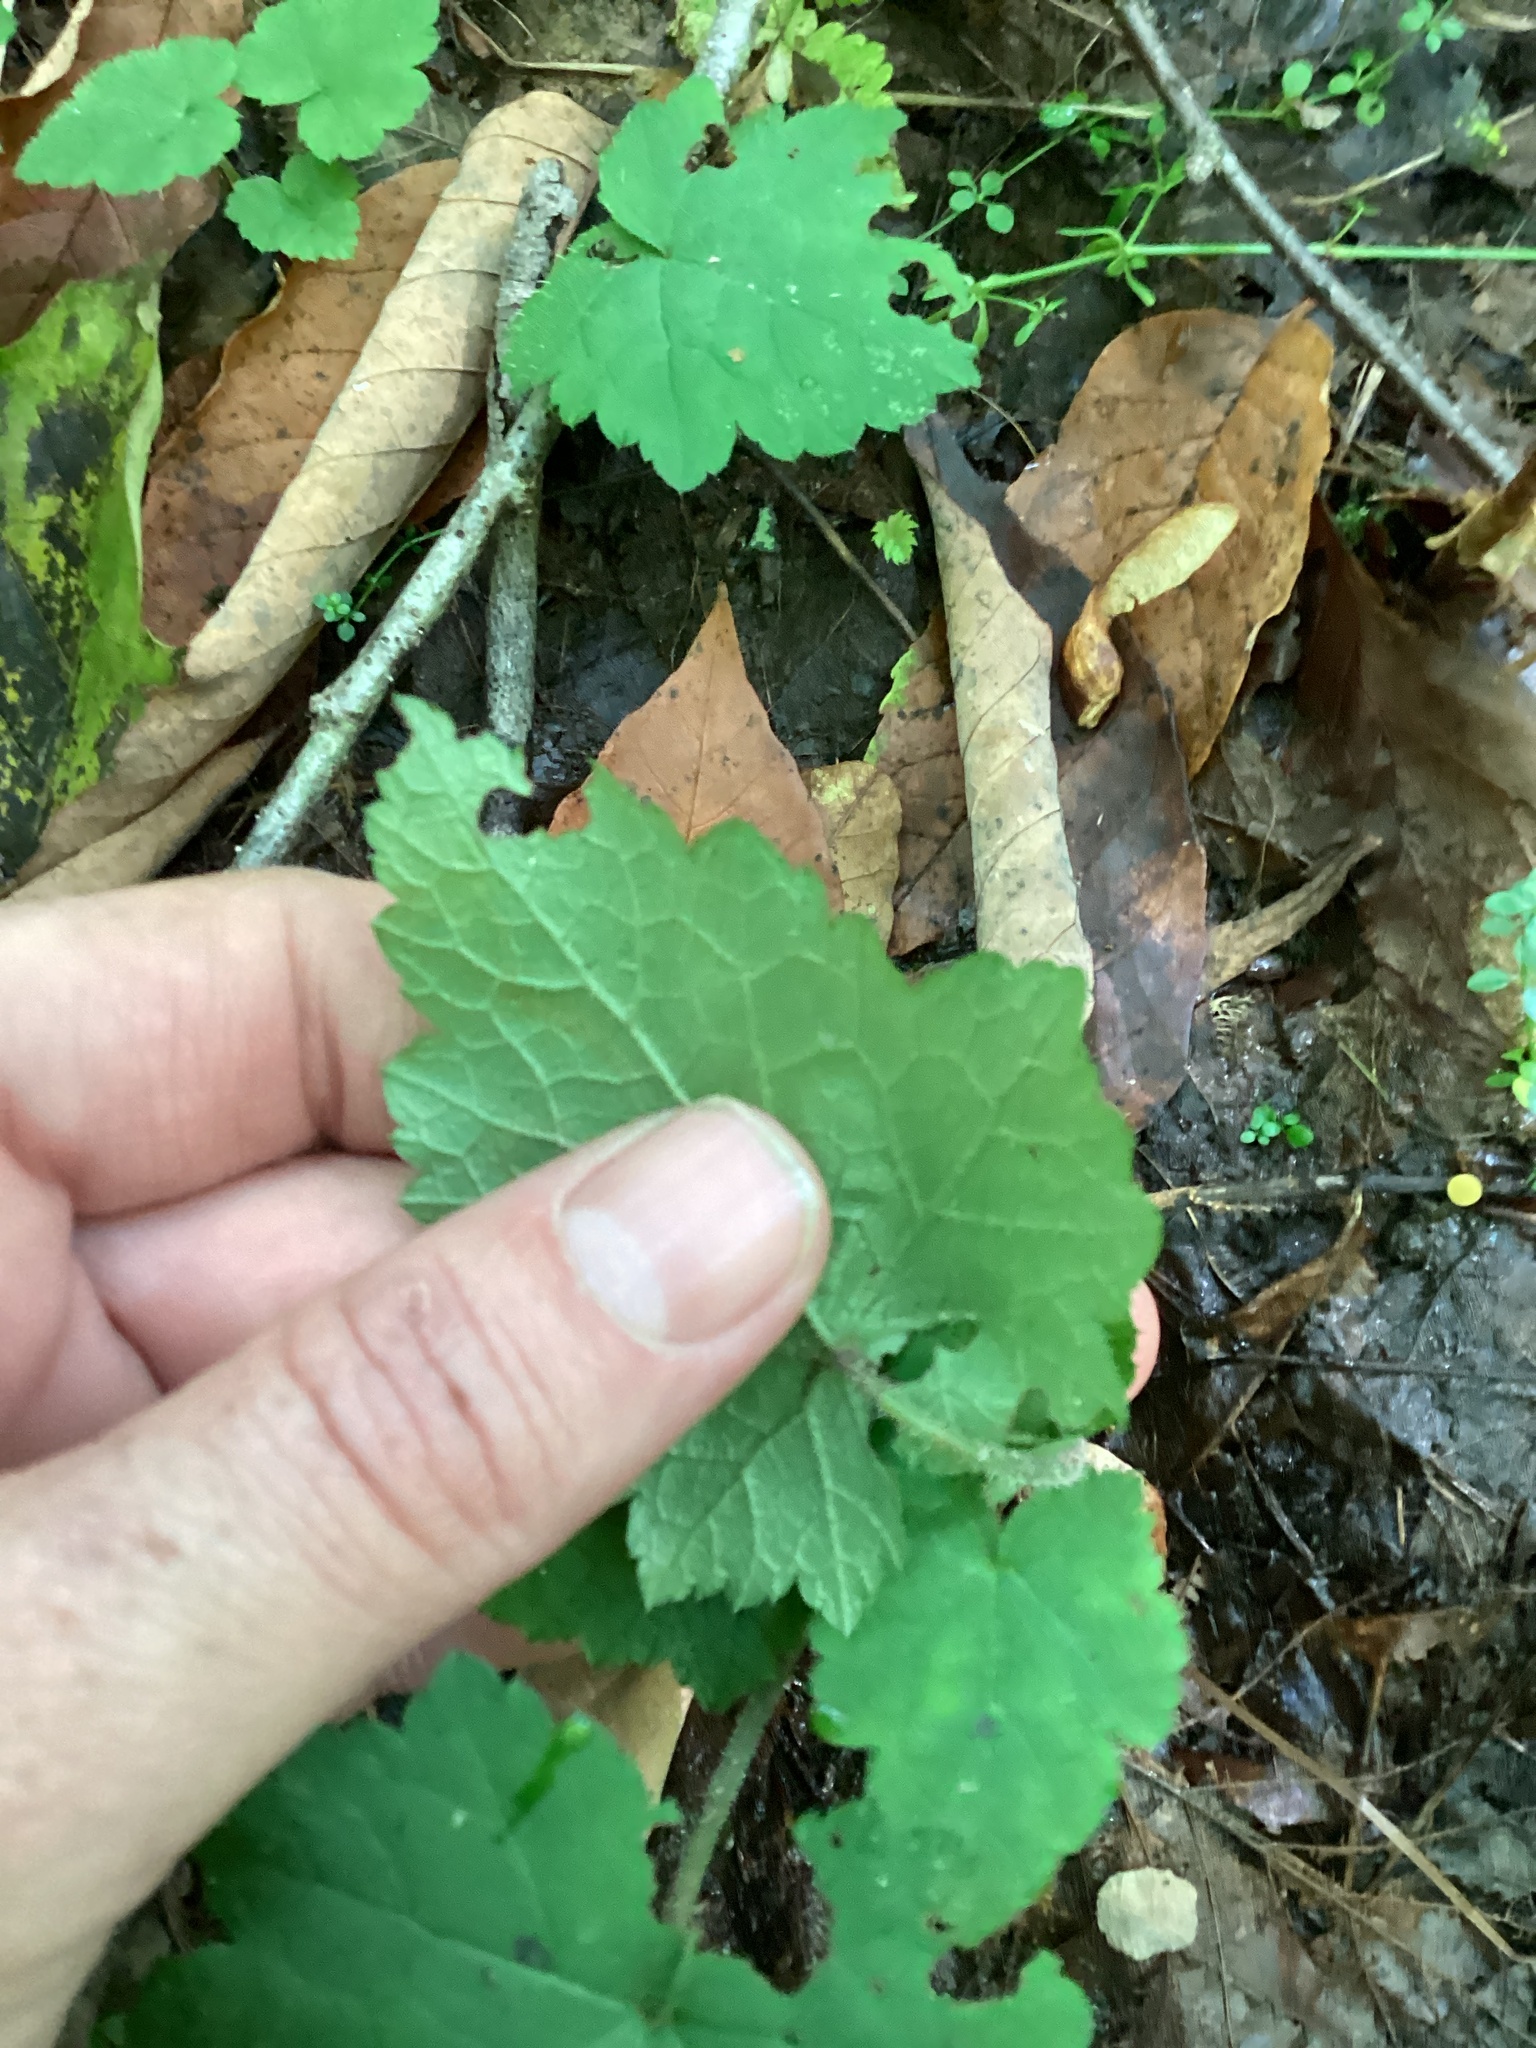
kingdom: Animalia
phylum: Arthropoda
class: Insecta
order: Diptera
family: Agromyzidae
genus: Phytomyza
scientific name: Phytomyza tigris
